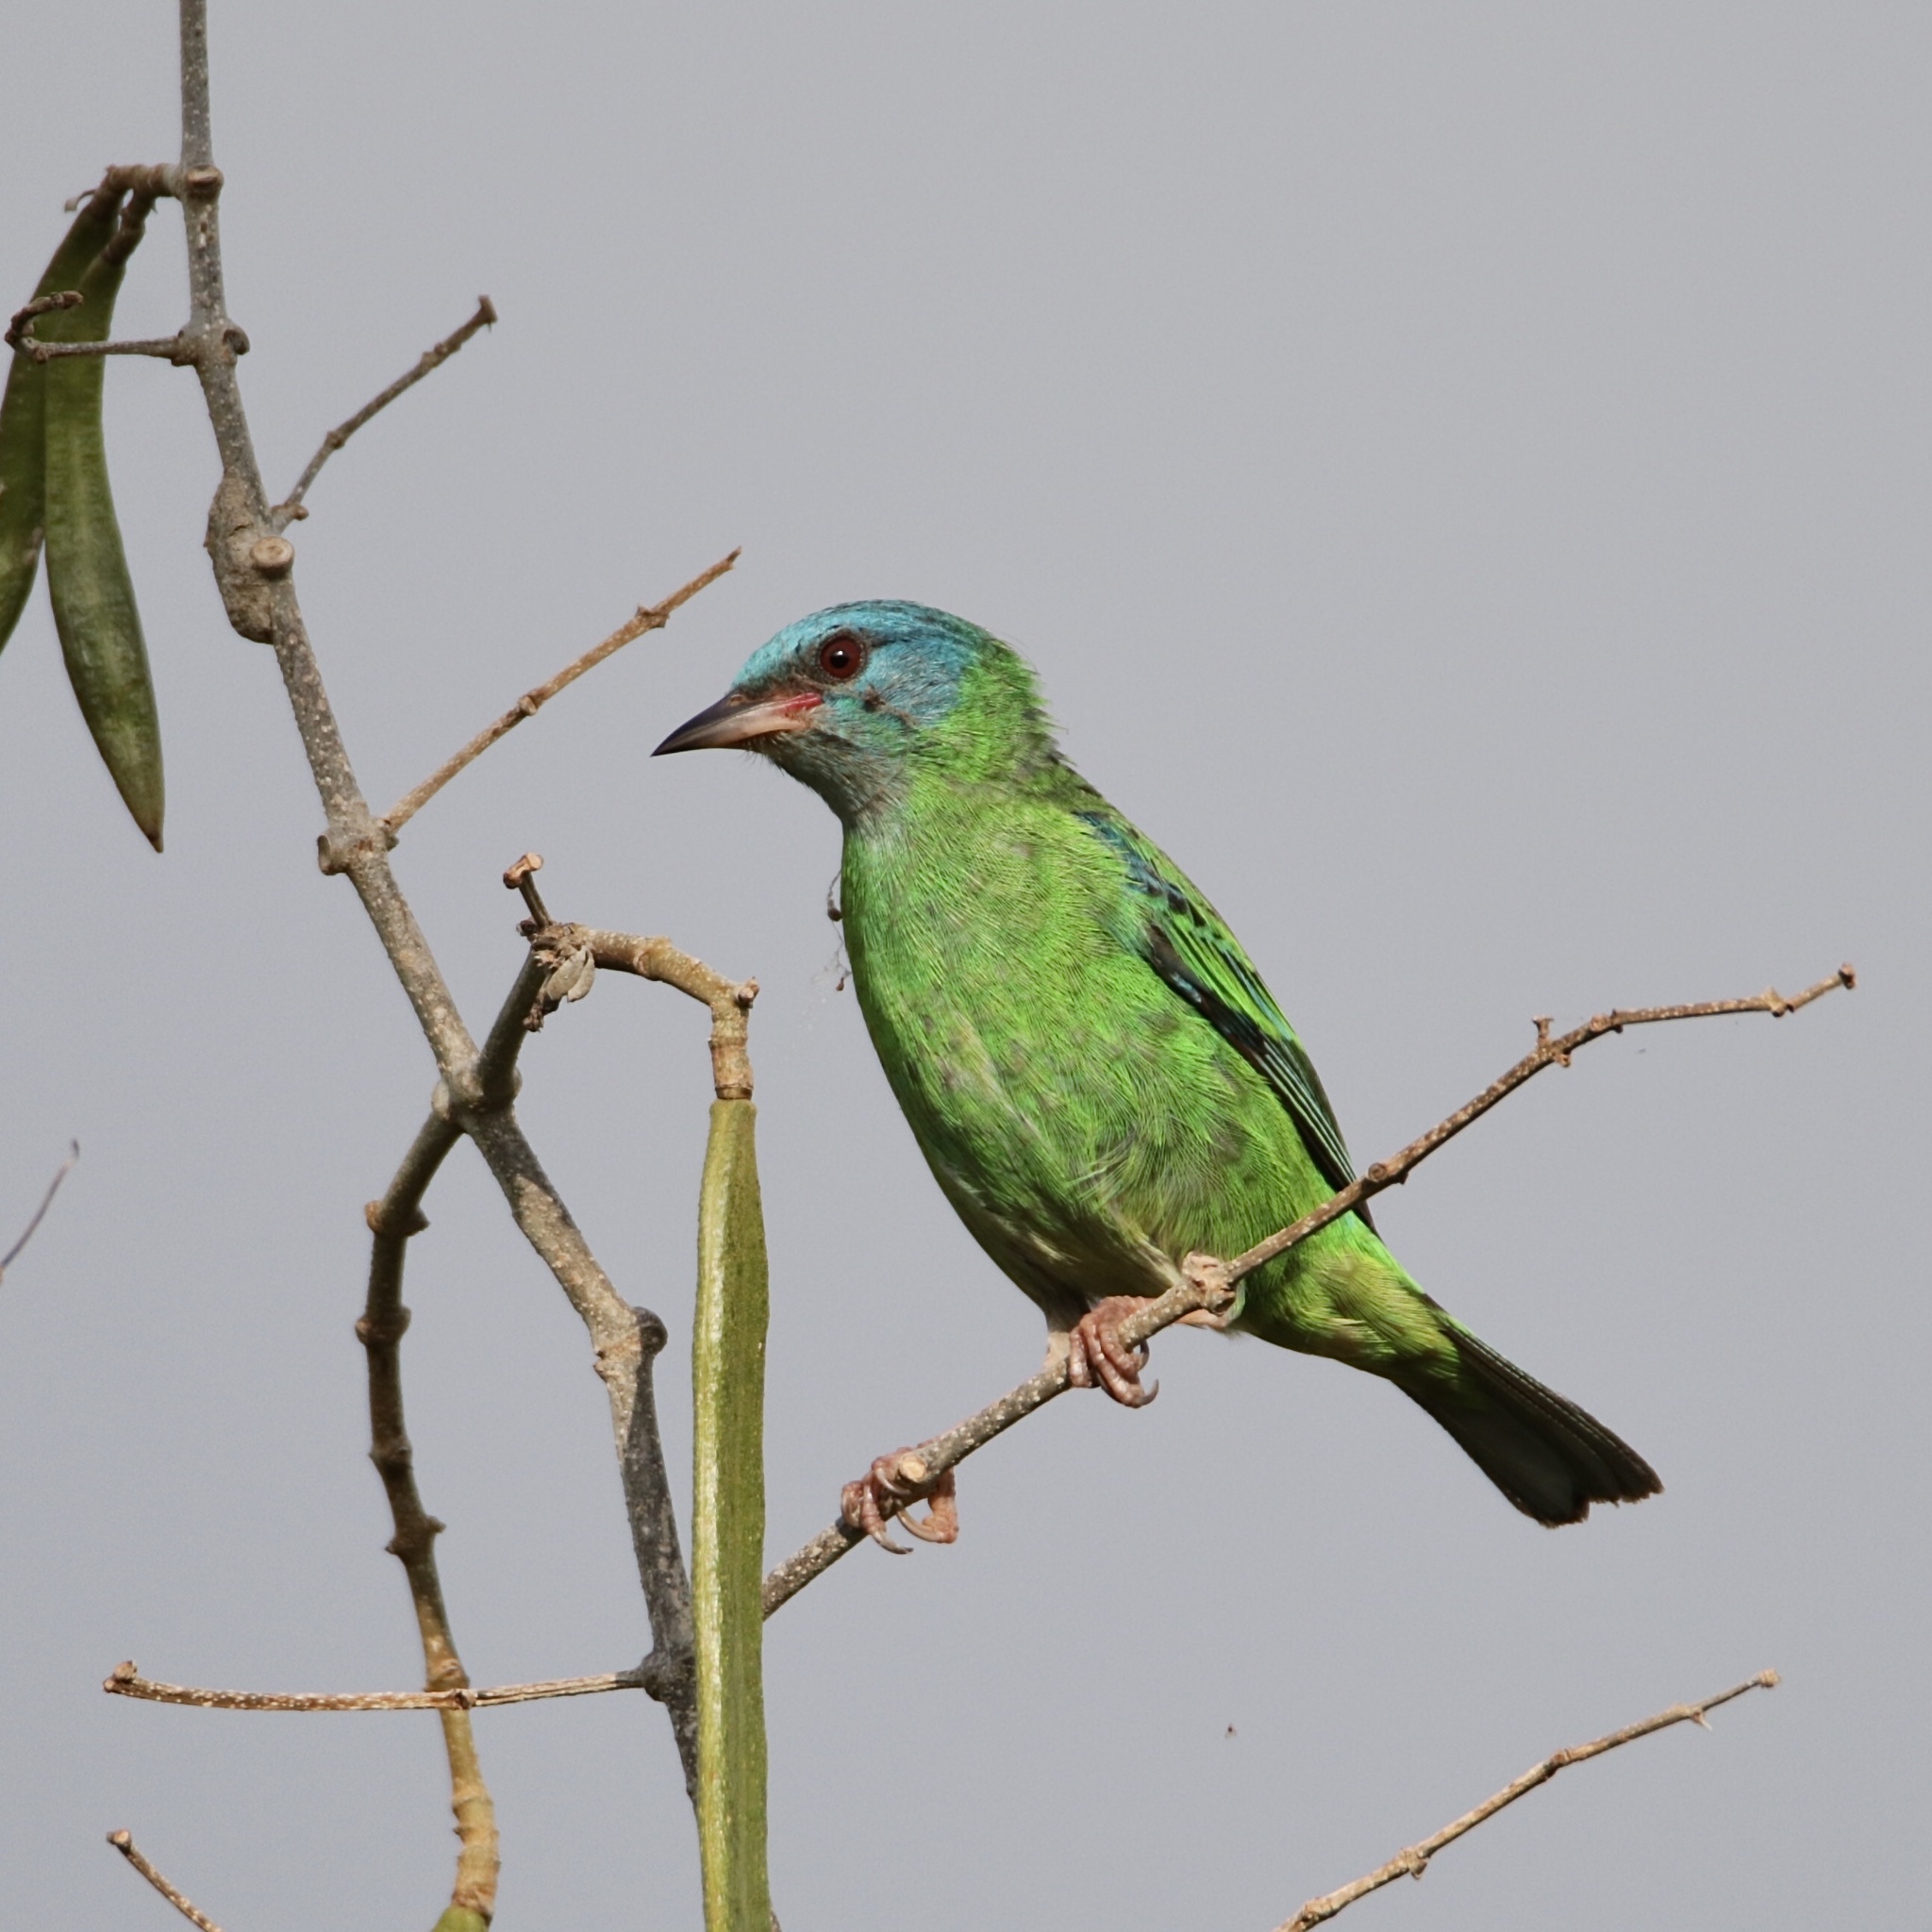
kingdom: Animalia
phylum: Chordata
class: Aves
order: Passeriformes
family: Thraupidae
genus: Dacnis
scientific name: Dacnis cayana
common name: Blue dacnis
